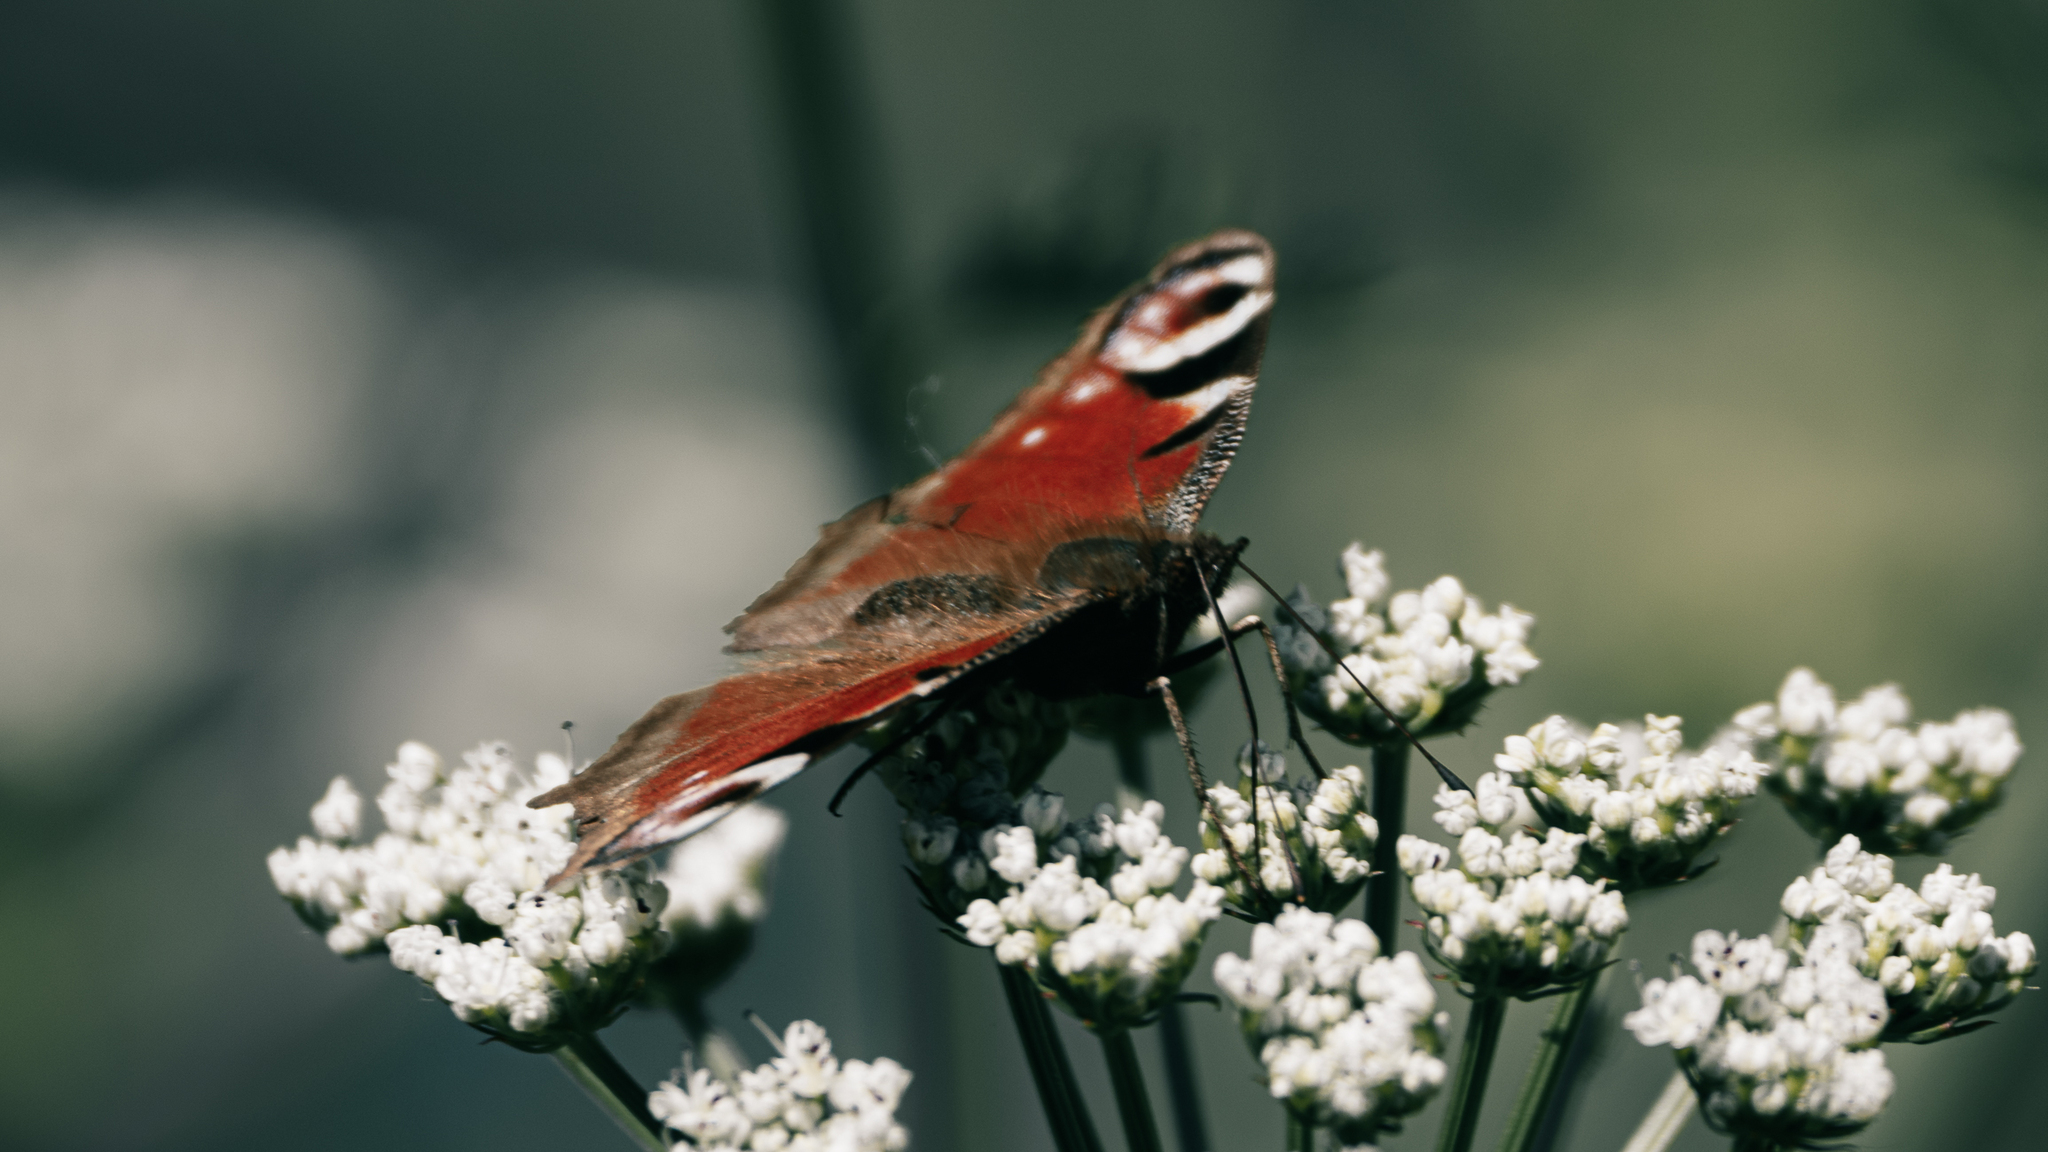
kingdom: Animalia
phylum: Arthropoda
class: Insecta
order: Lepidoptera
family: Nymphalidae
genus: Aglais
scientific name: Aglais io
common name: Peacock
